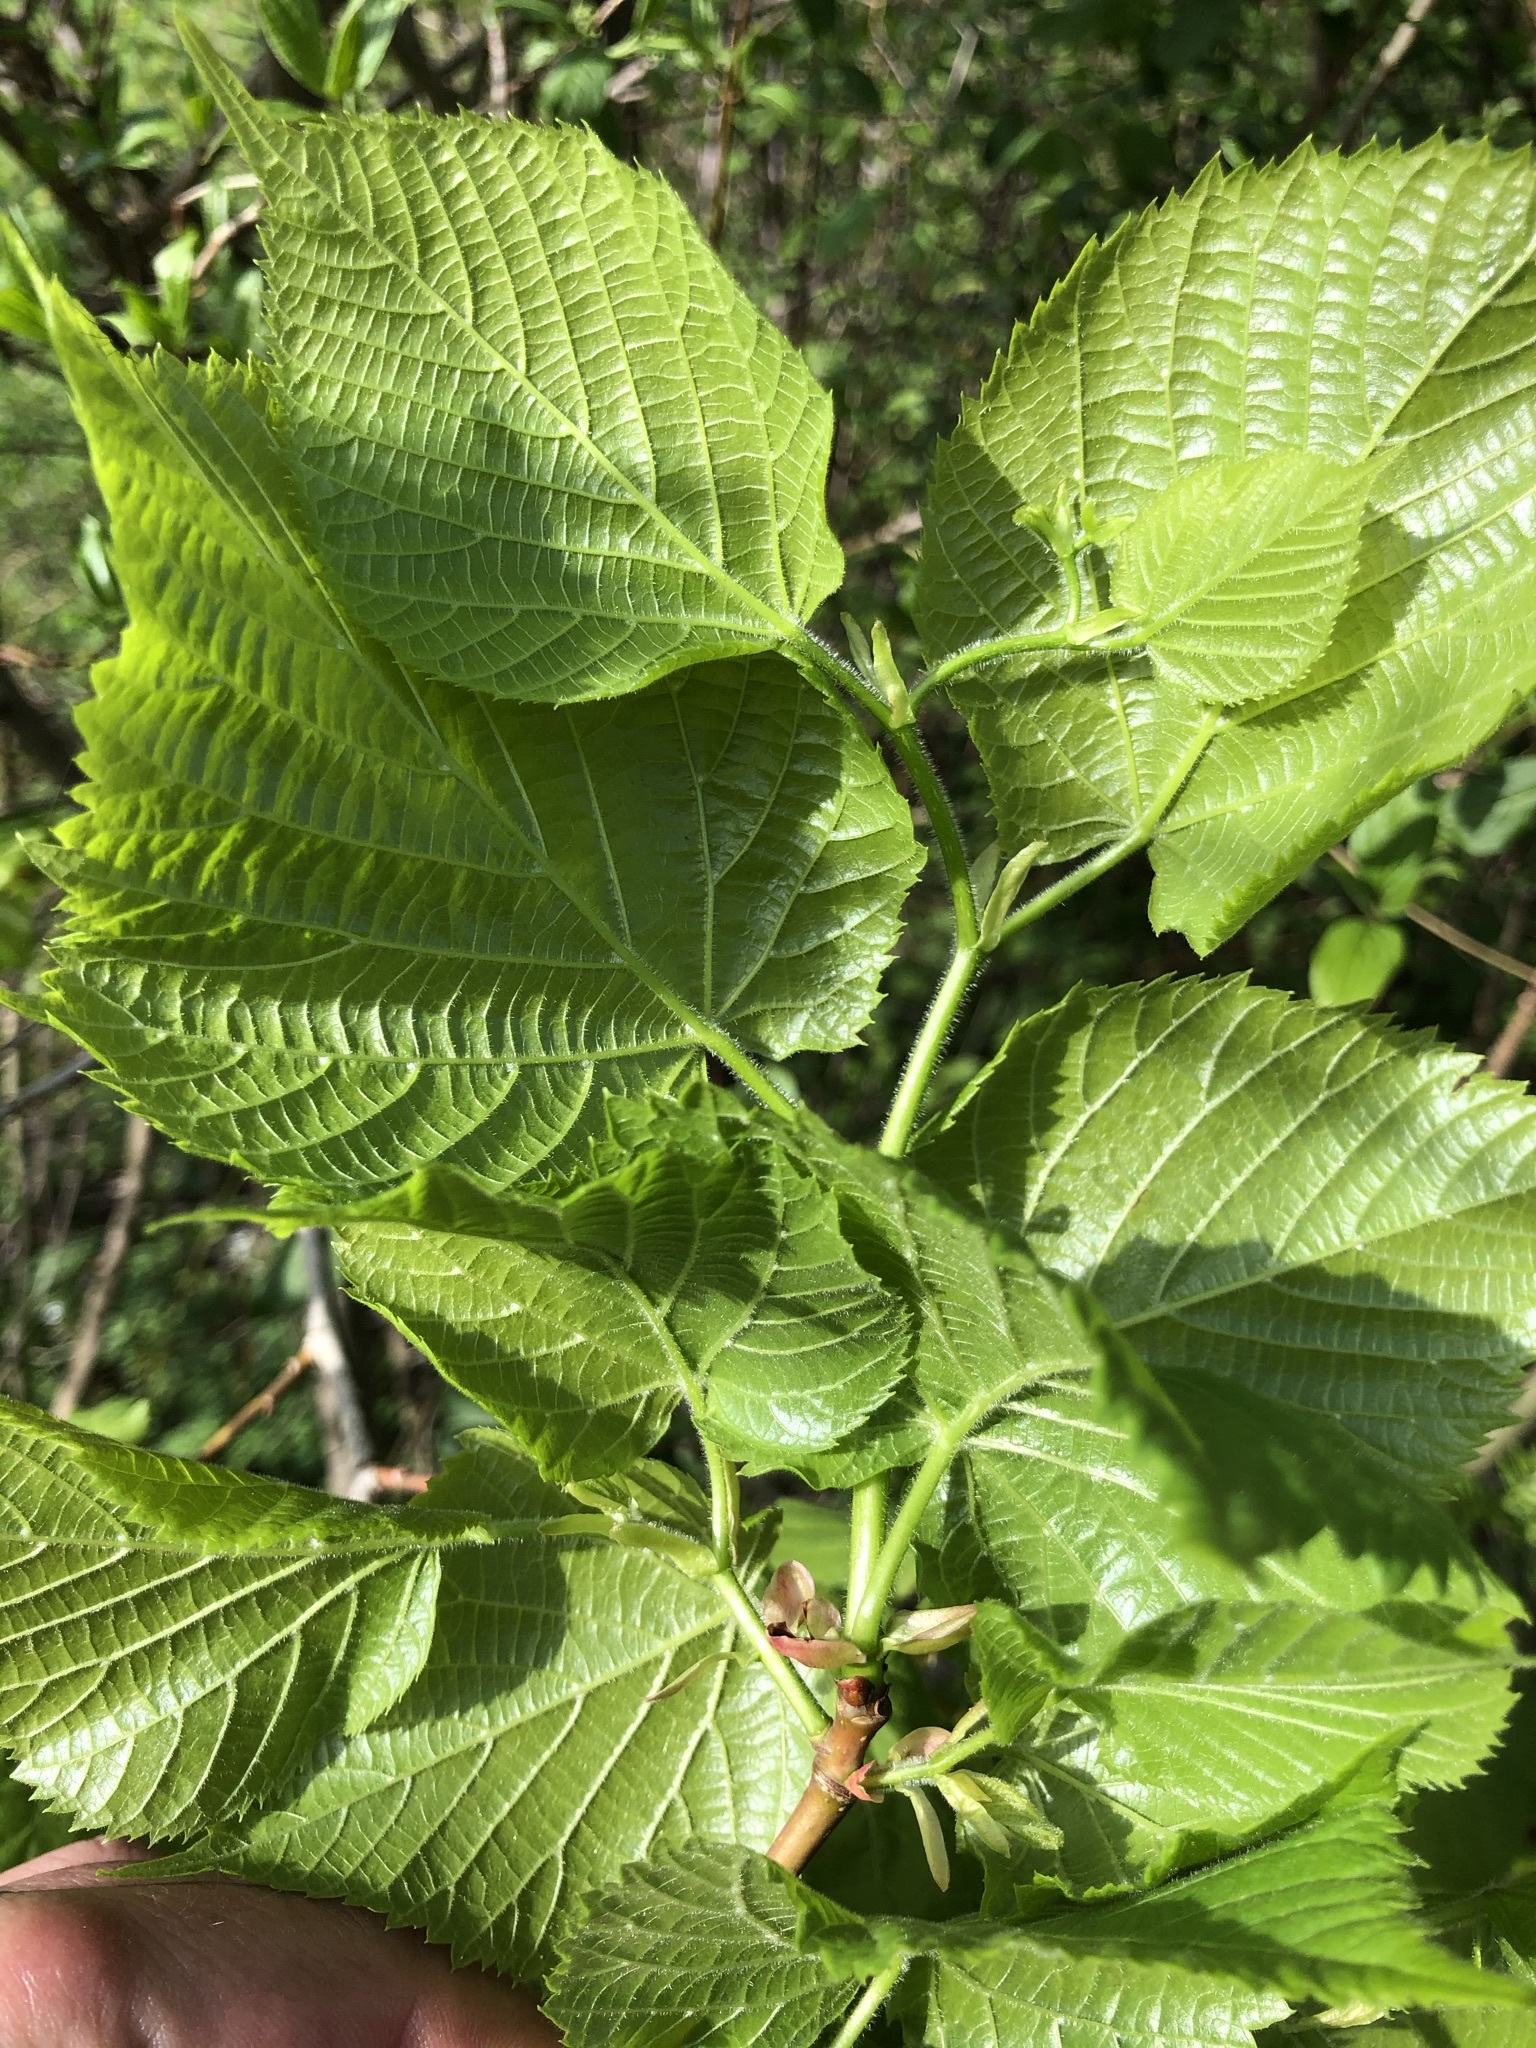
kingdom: Plantae
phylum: Tracheophyta
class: Magnoliopsida
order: Malvales
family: Malvaceae
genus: Tilia
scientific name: Tilia platyphyllos
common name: Large-leaved lime
